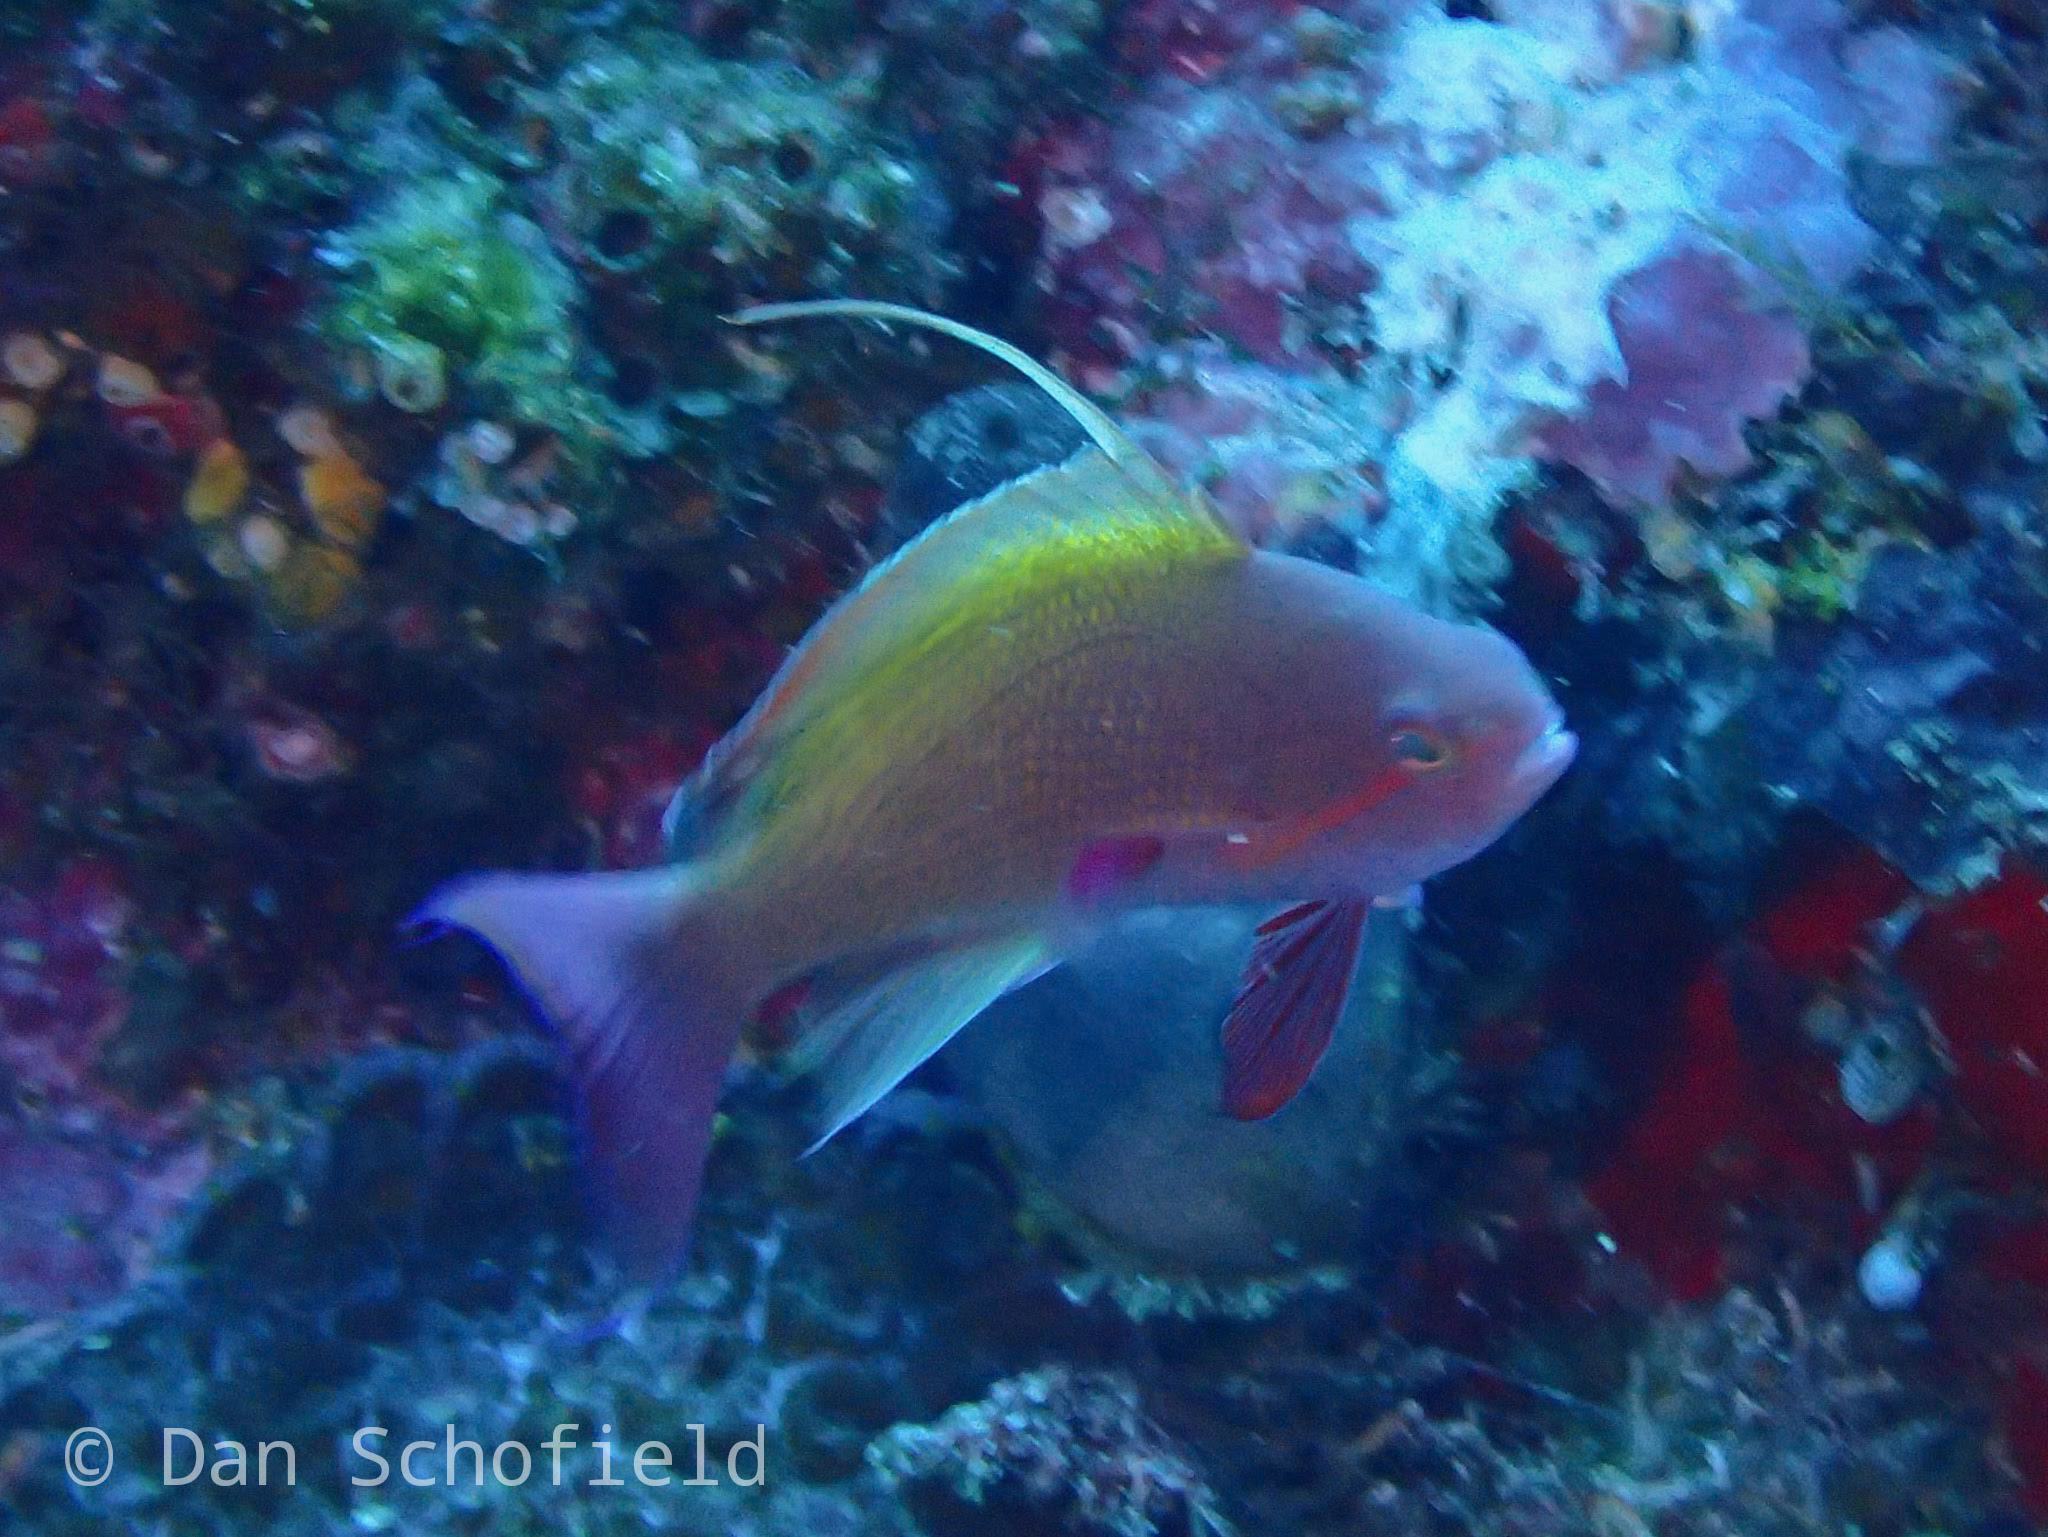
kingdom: Animalia
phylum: Chordata
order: Perciformes
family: Serranidae
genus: Pseudanthias
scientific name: Pseudanthias squamipinnis
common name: Scalefin anthias
